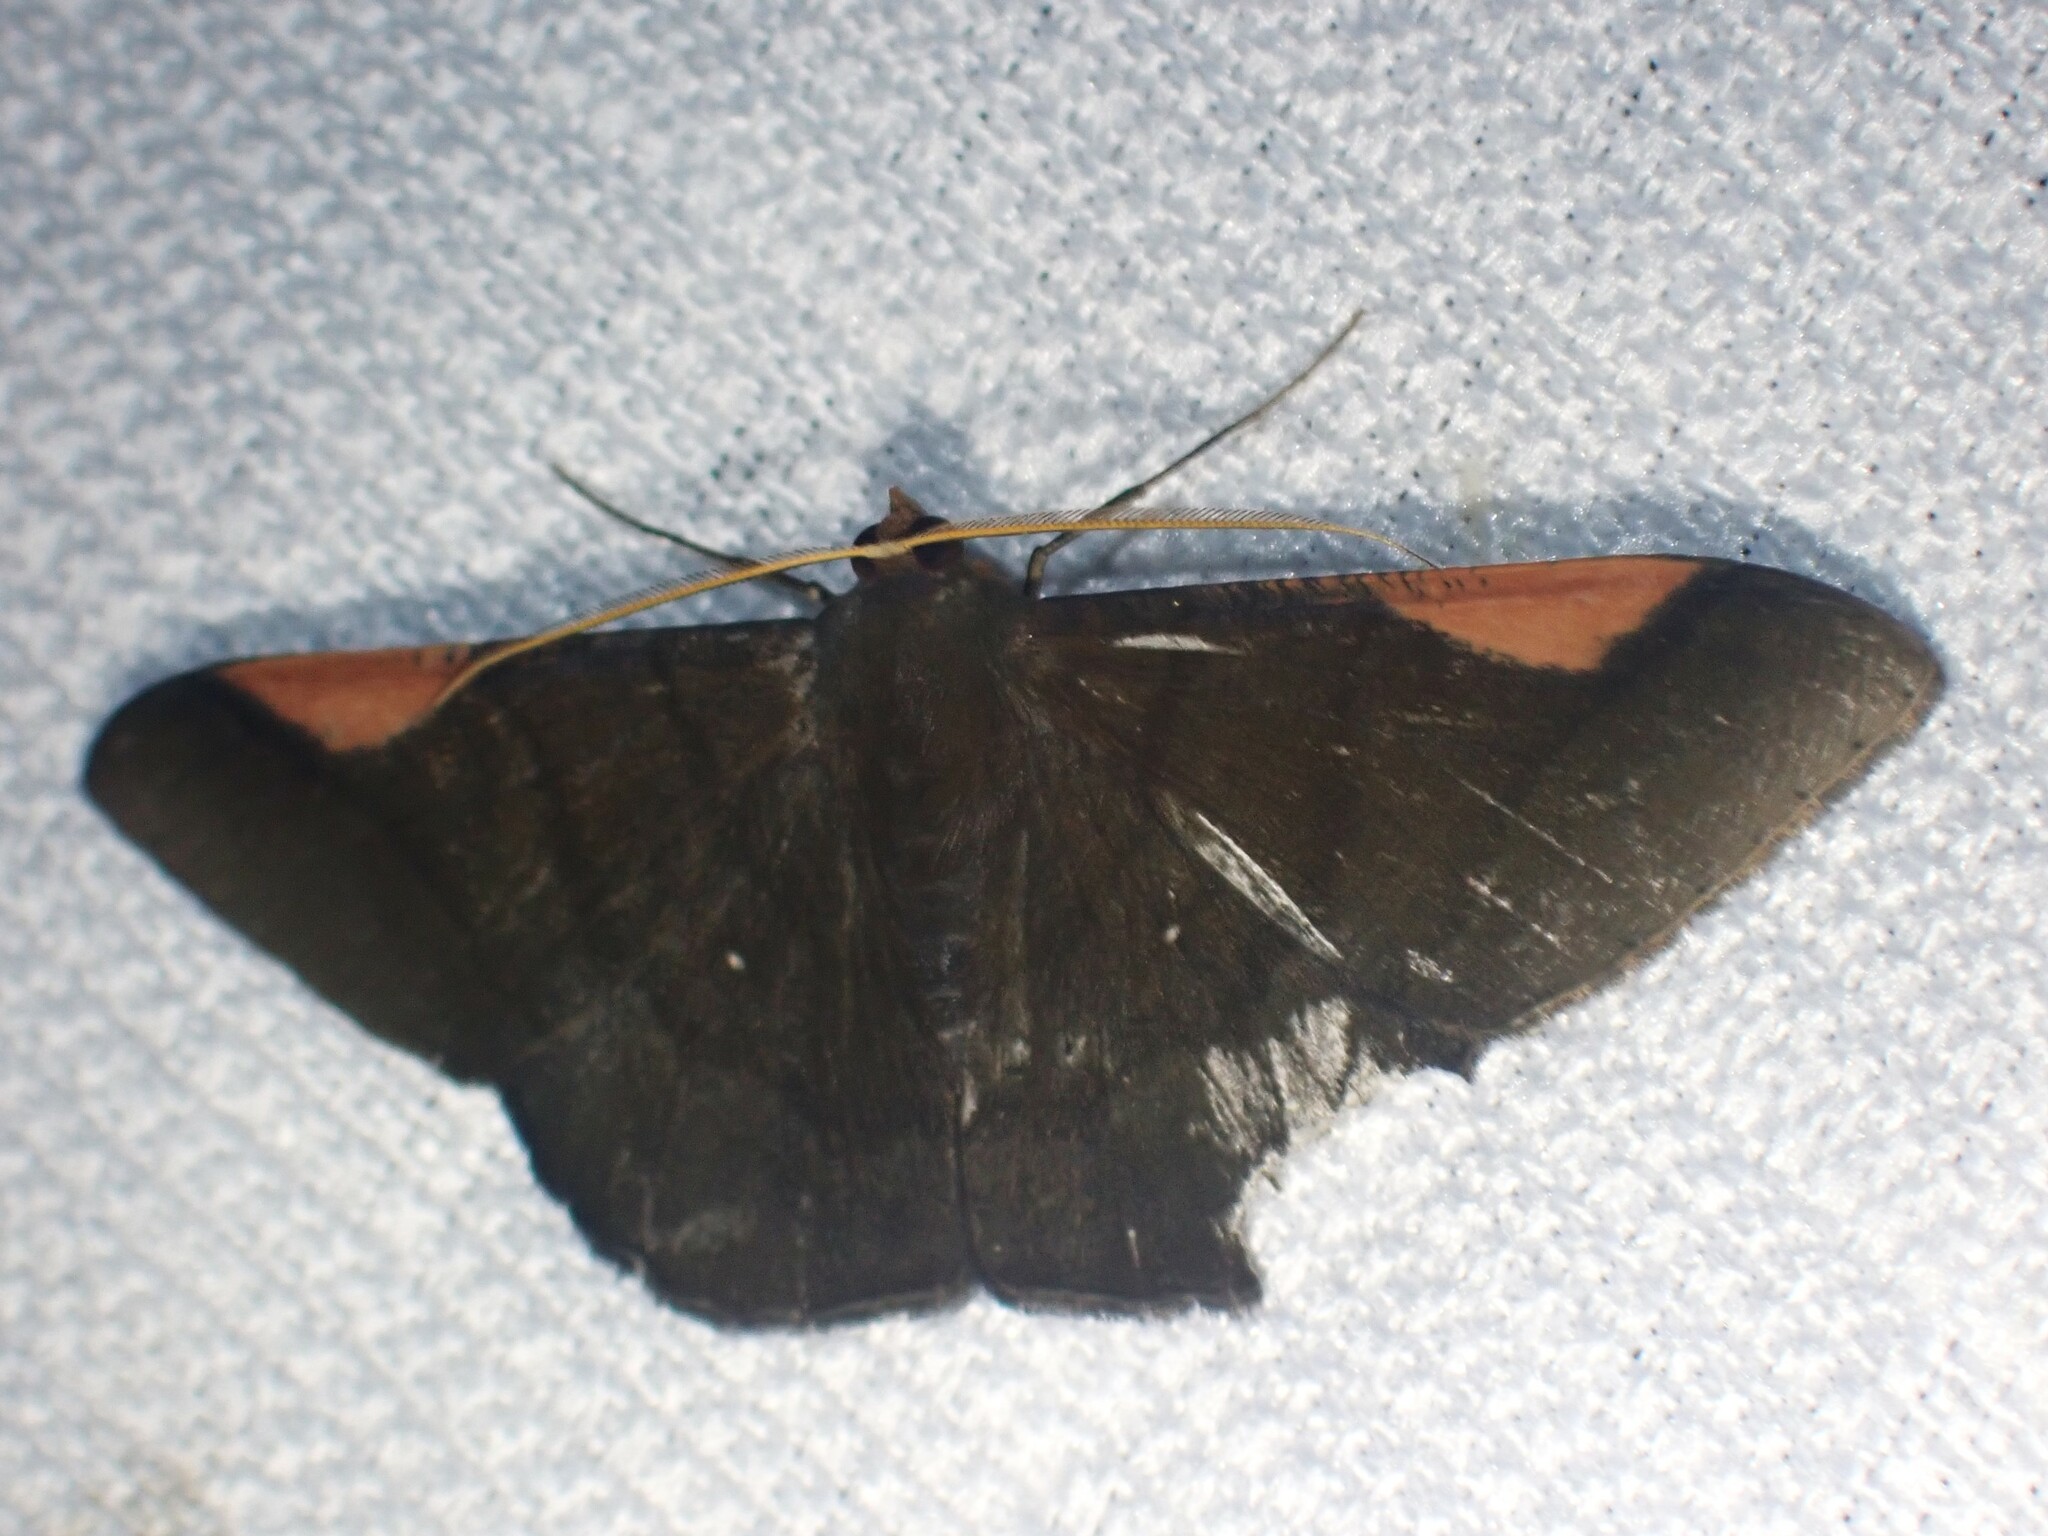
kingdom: Animalia
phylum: Arthropoda
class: Insecta
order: Lepidoptera
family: Geometridae
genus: Sphacelodes
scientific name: Sphacelodes vulneraria
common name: Looper moth
